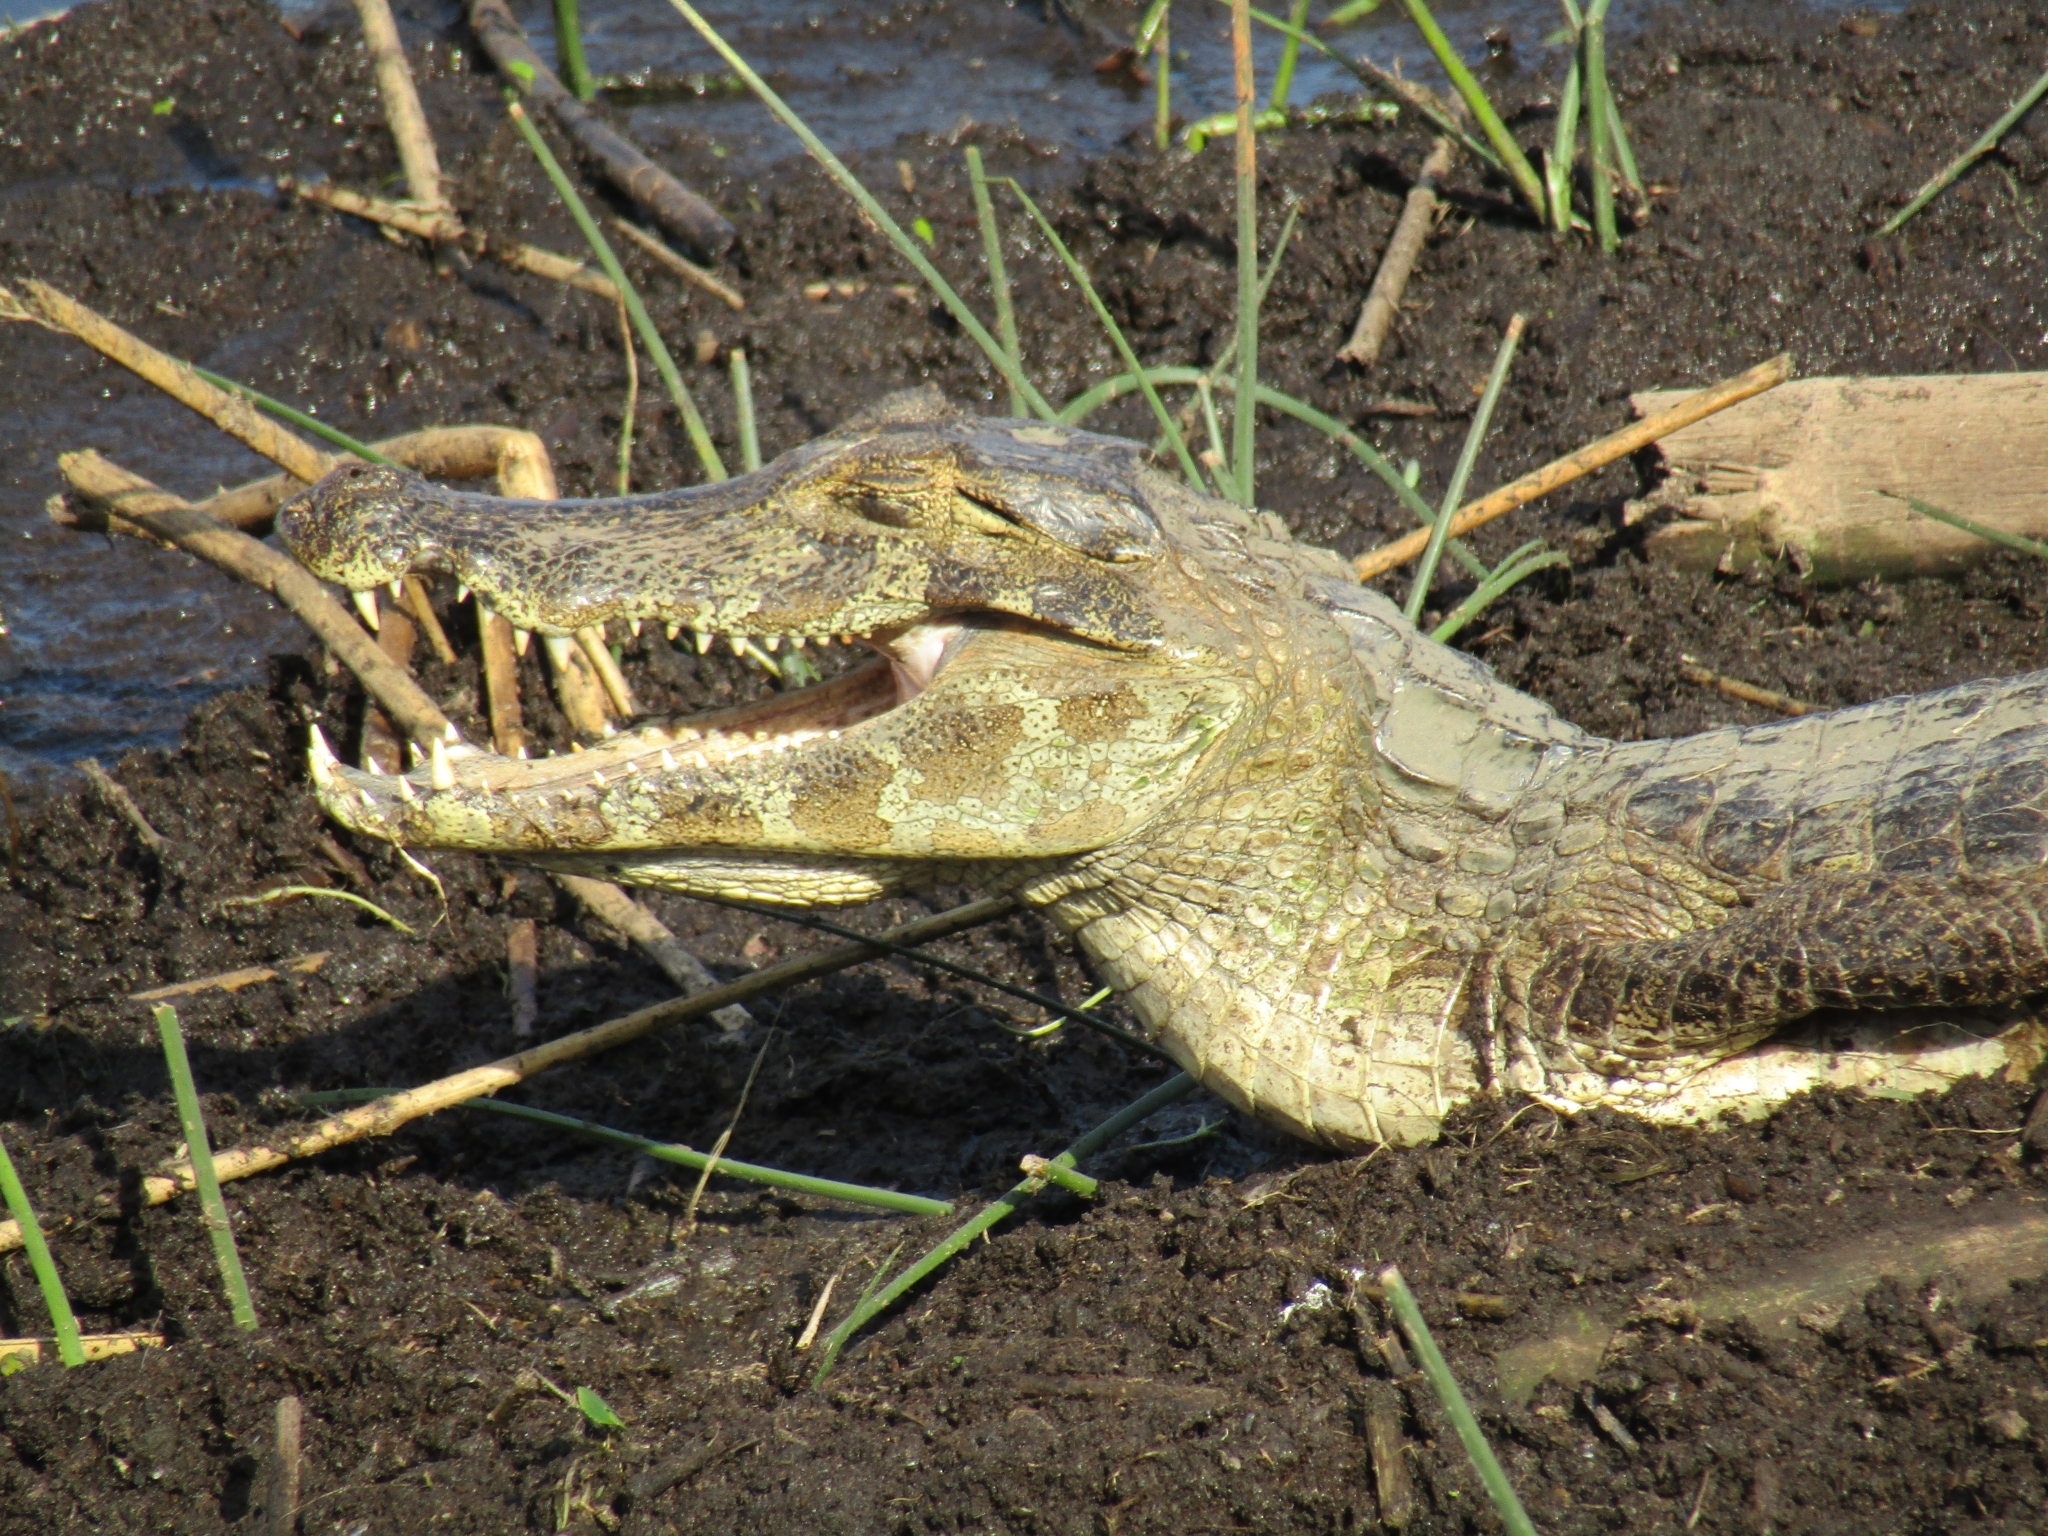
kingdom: Animalia
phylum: Chordata
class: Crocodylia
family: Alligatoridae
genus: Caiman
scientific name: Caiman yacare
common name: Yacare caiman
